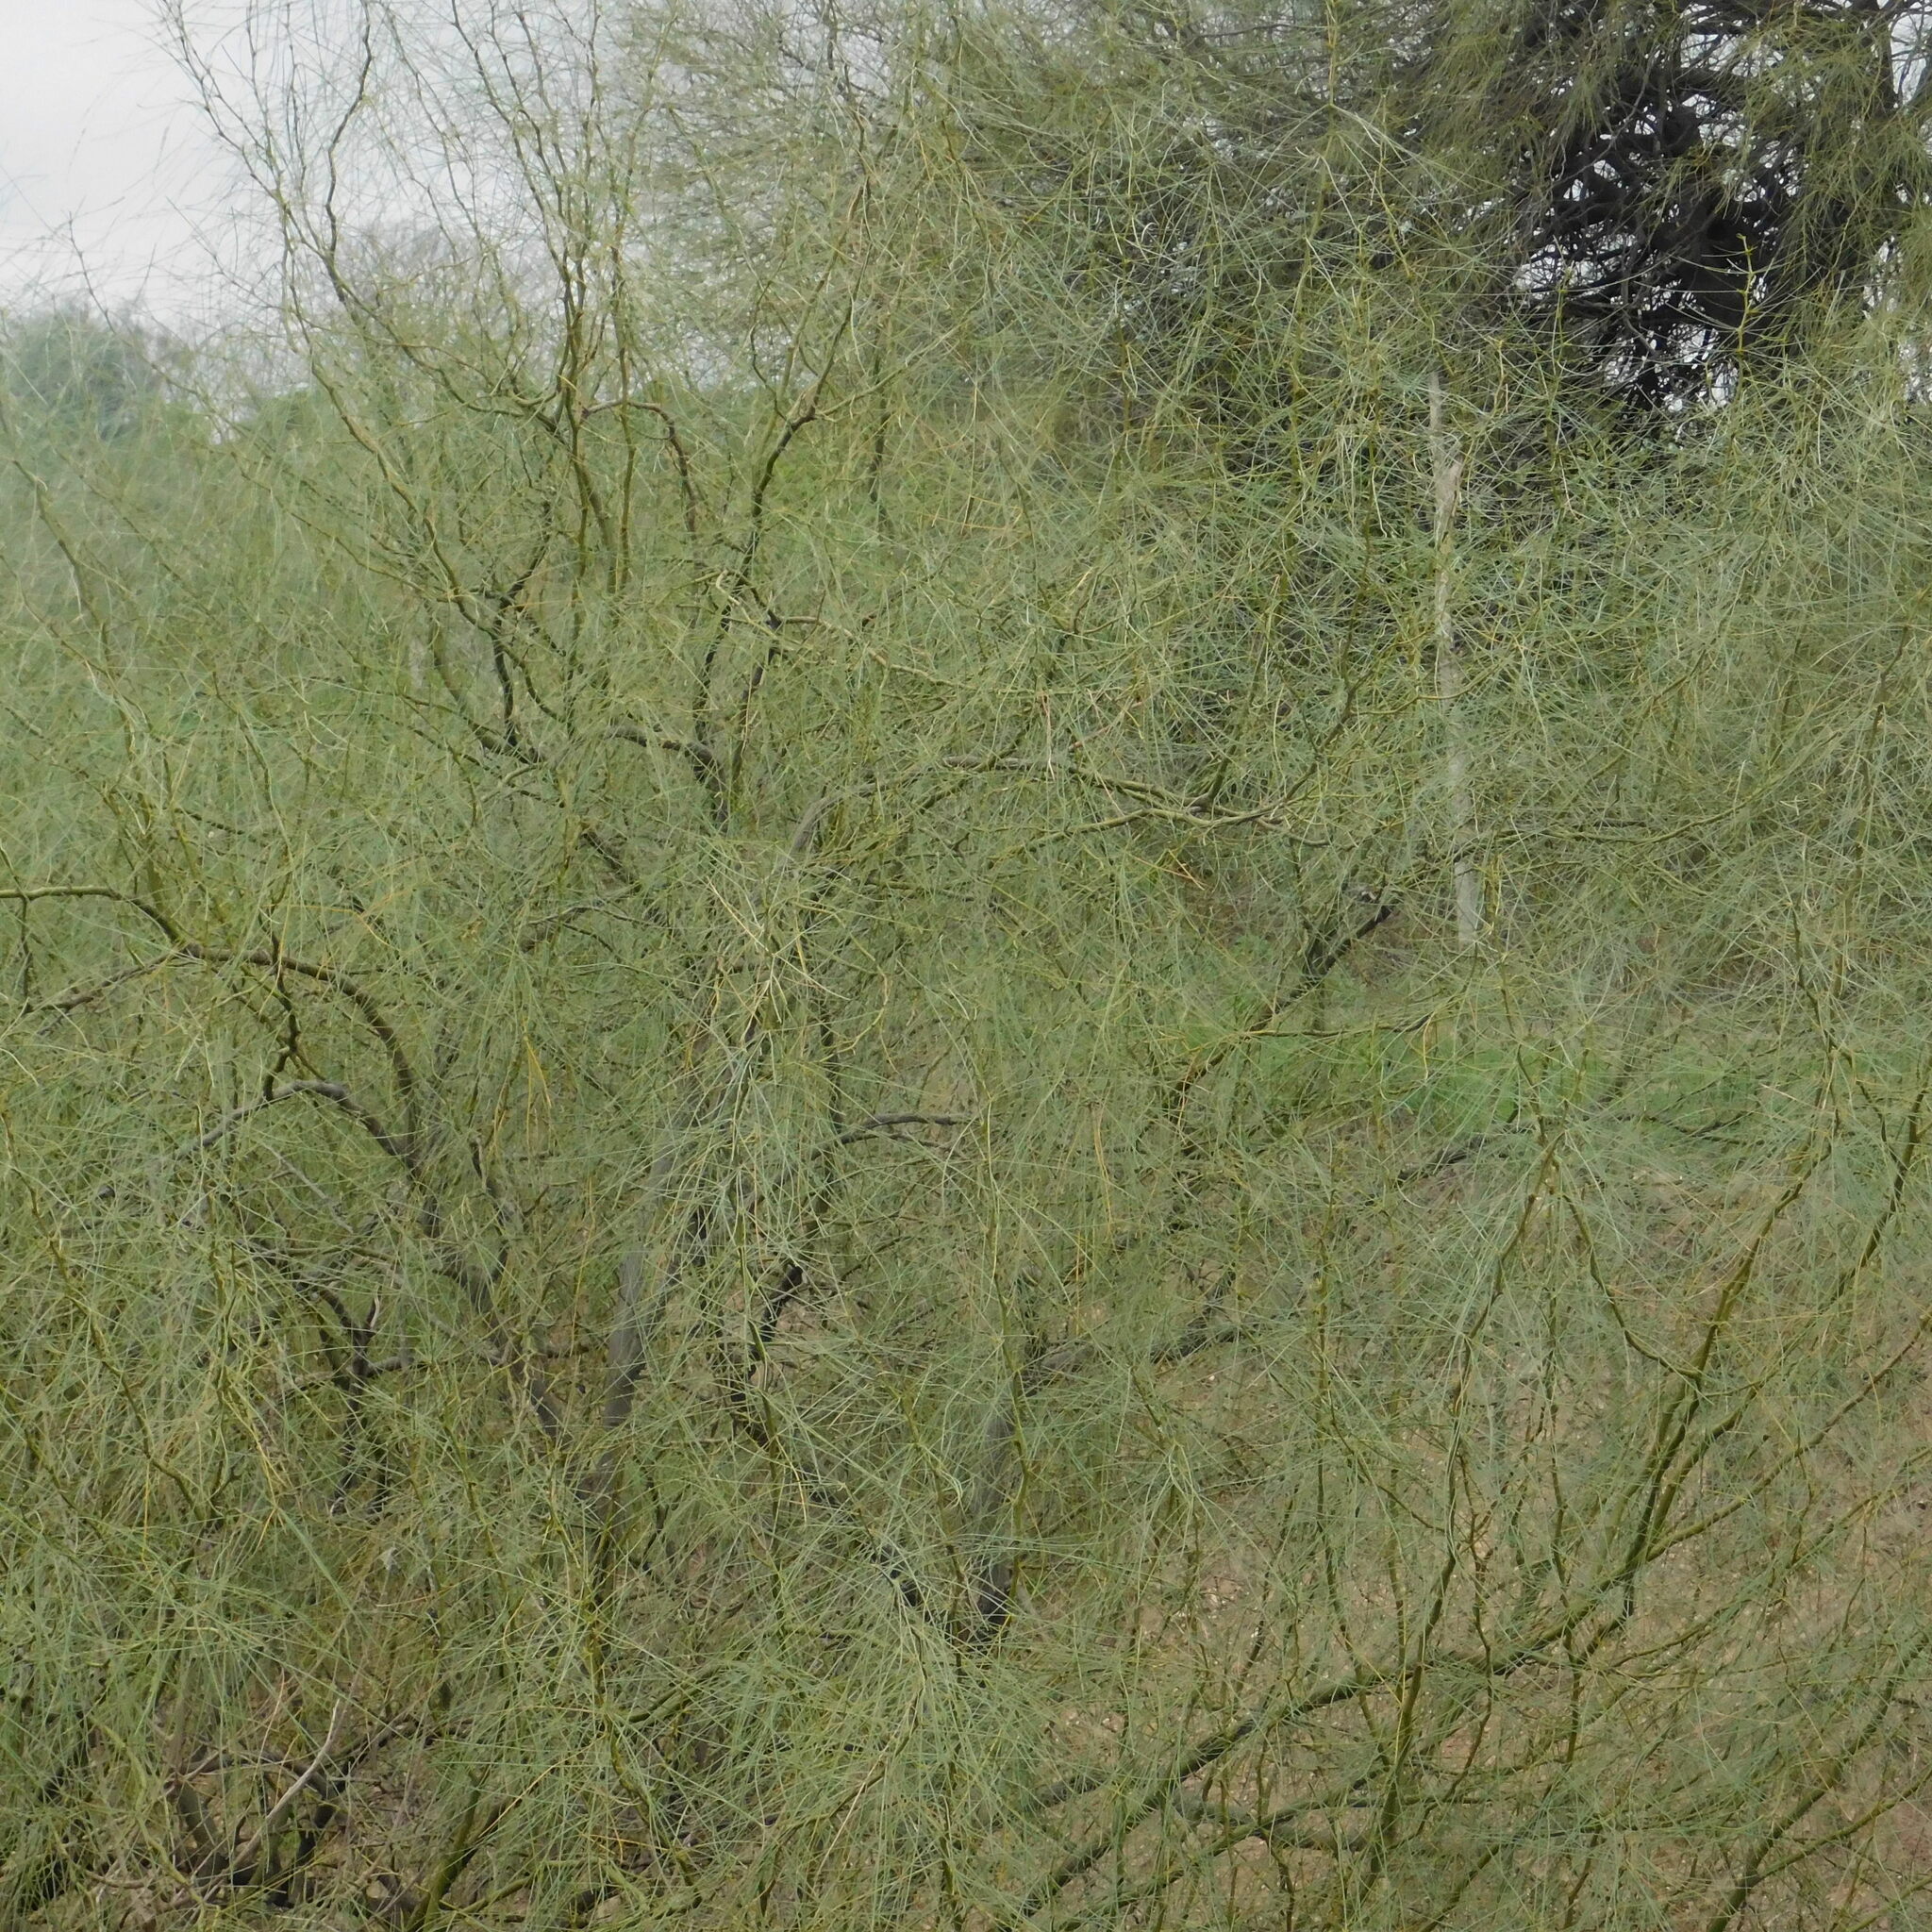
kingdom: Plantae
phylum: Tracheophyta
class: Magnoliopsida
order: Fabales
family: Fabaceae
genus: Parkinsonia
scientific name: Parkinsonia aculeata
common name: Jerusalem thorn
